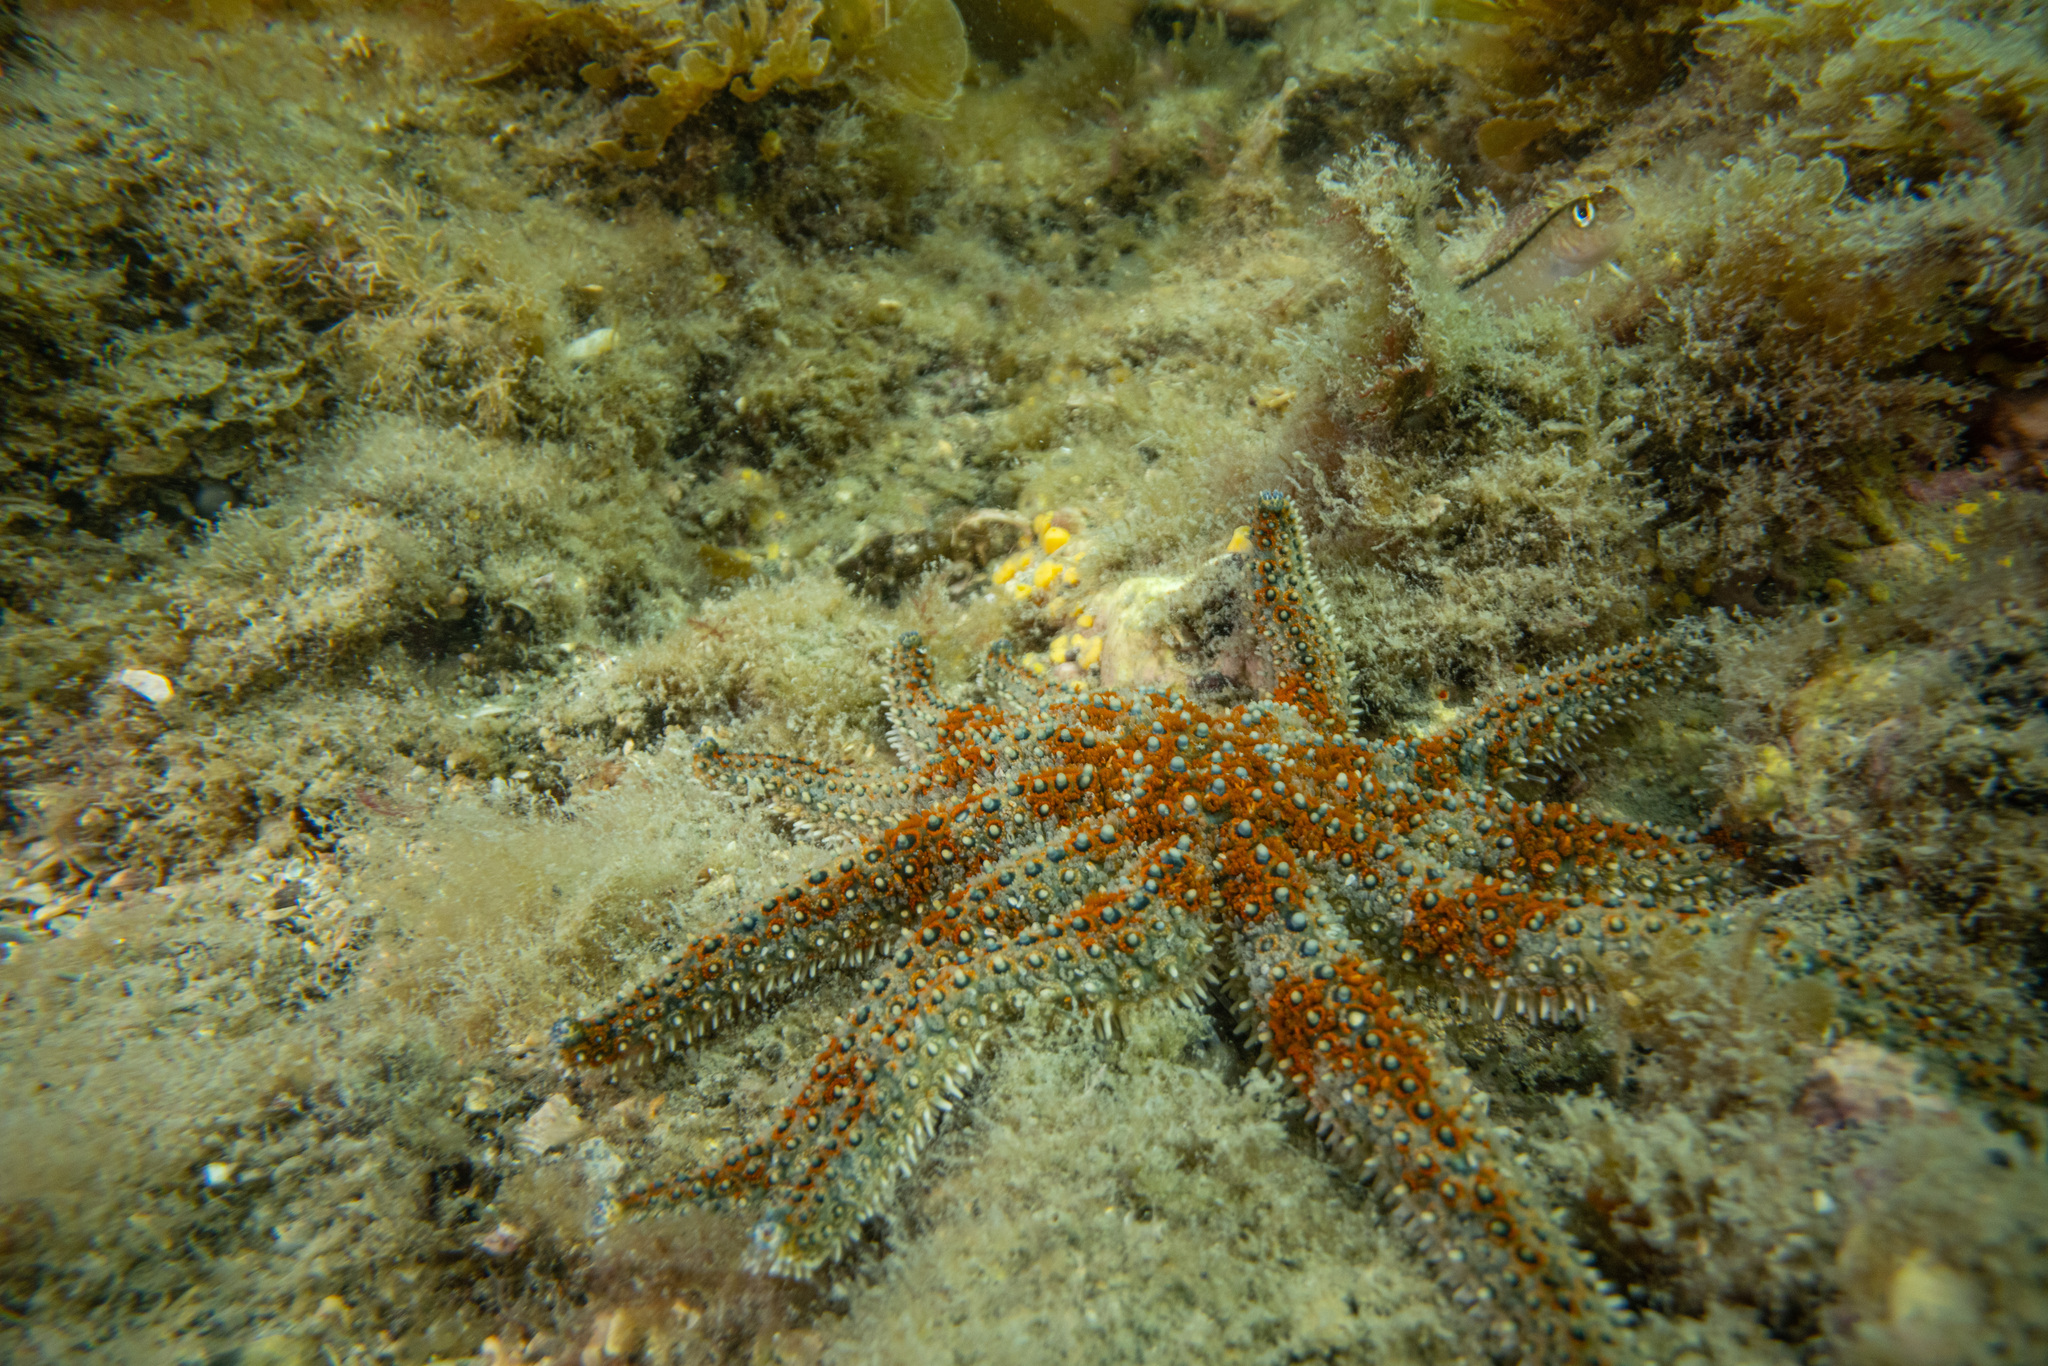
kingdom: Animalia
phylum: Echinodermata
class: Asteroidea
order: Forcipulatida
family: Asteriidae
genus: Coscinasterias
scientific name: Coscinasterias muricata
